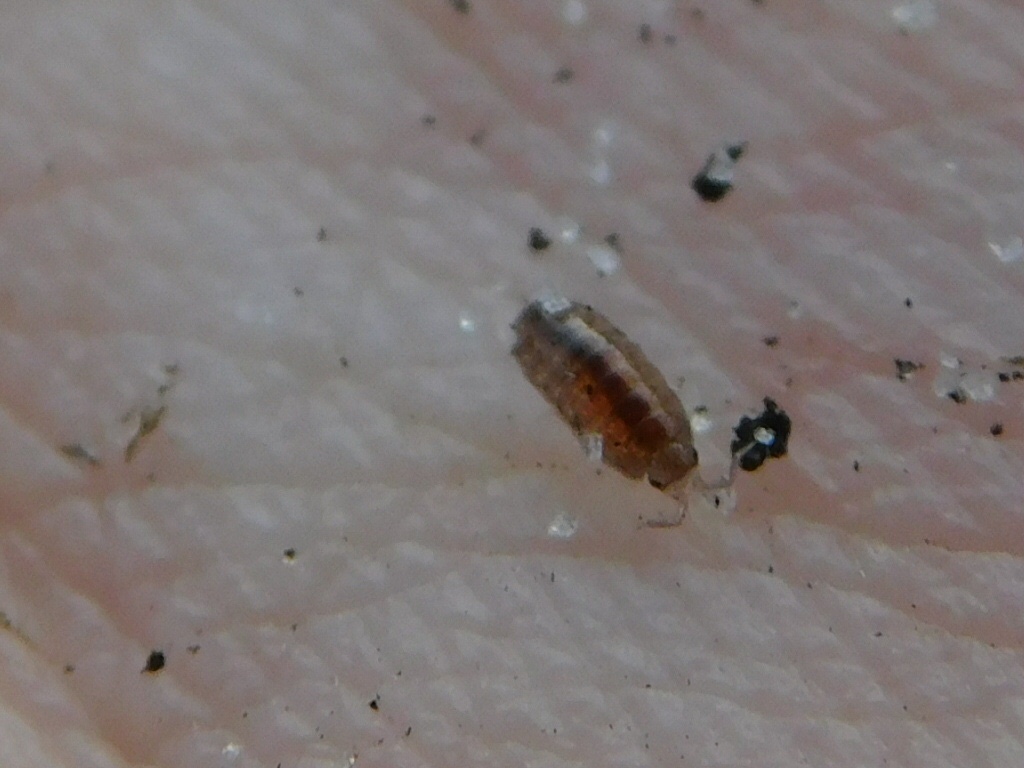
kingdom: Animalia
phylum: Arthropoda
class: Malacostraca
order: Isopoda
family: Philosciidae
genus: Floridoscia
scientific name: Floridoscia fusca
